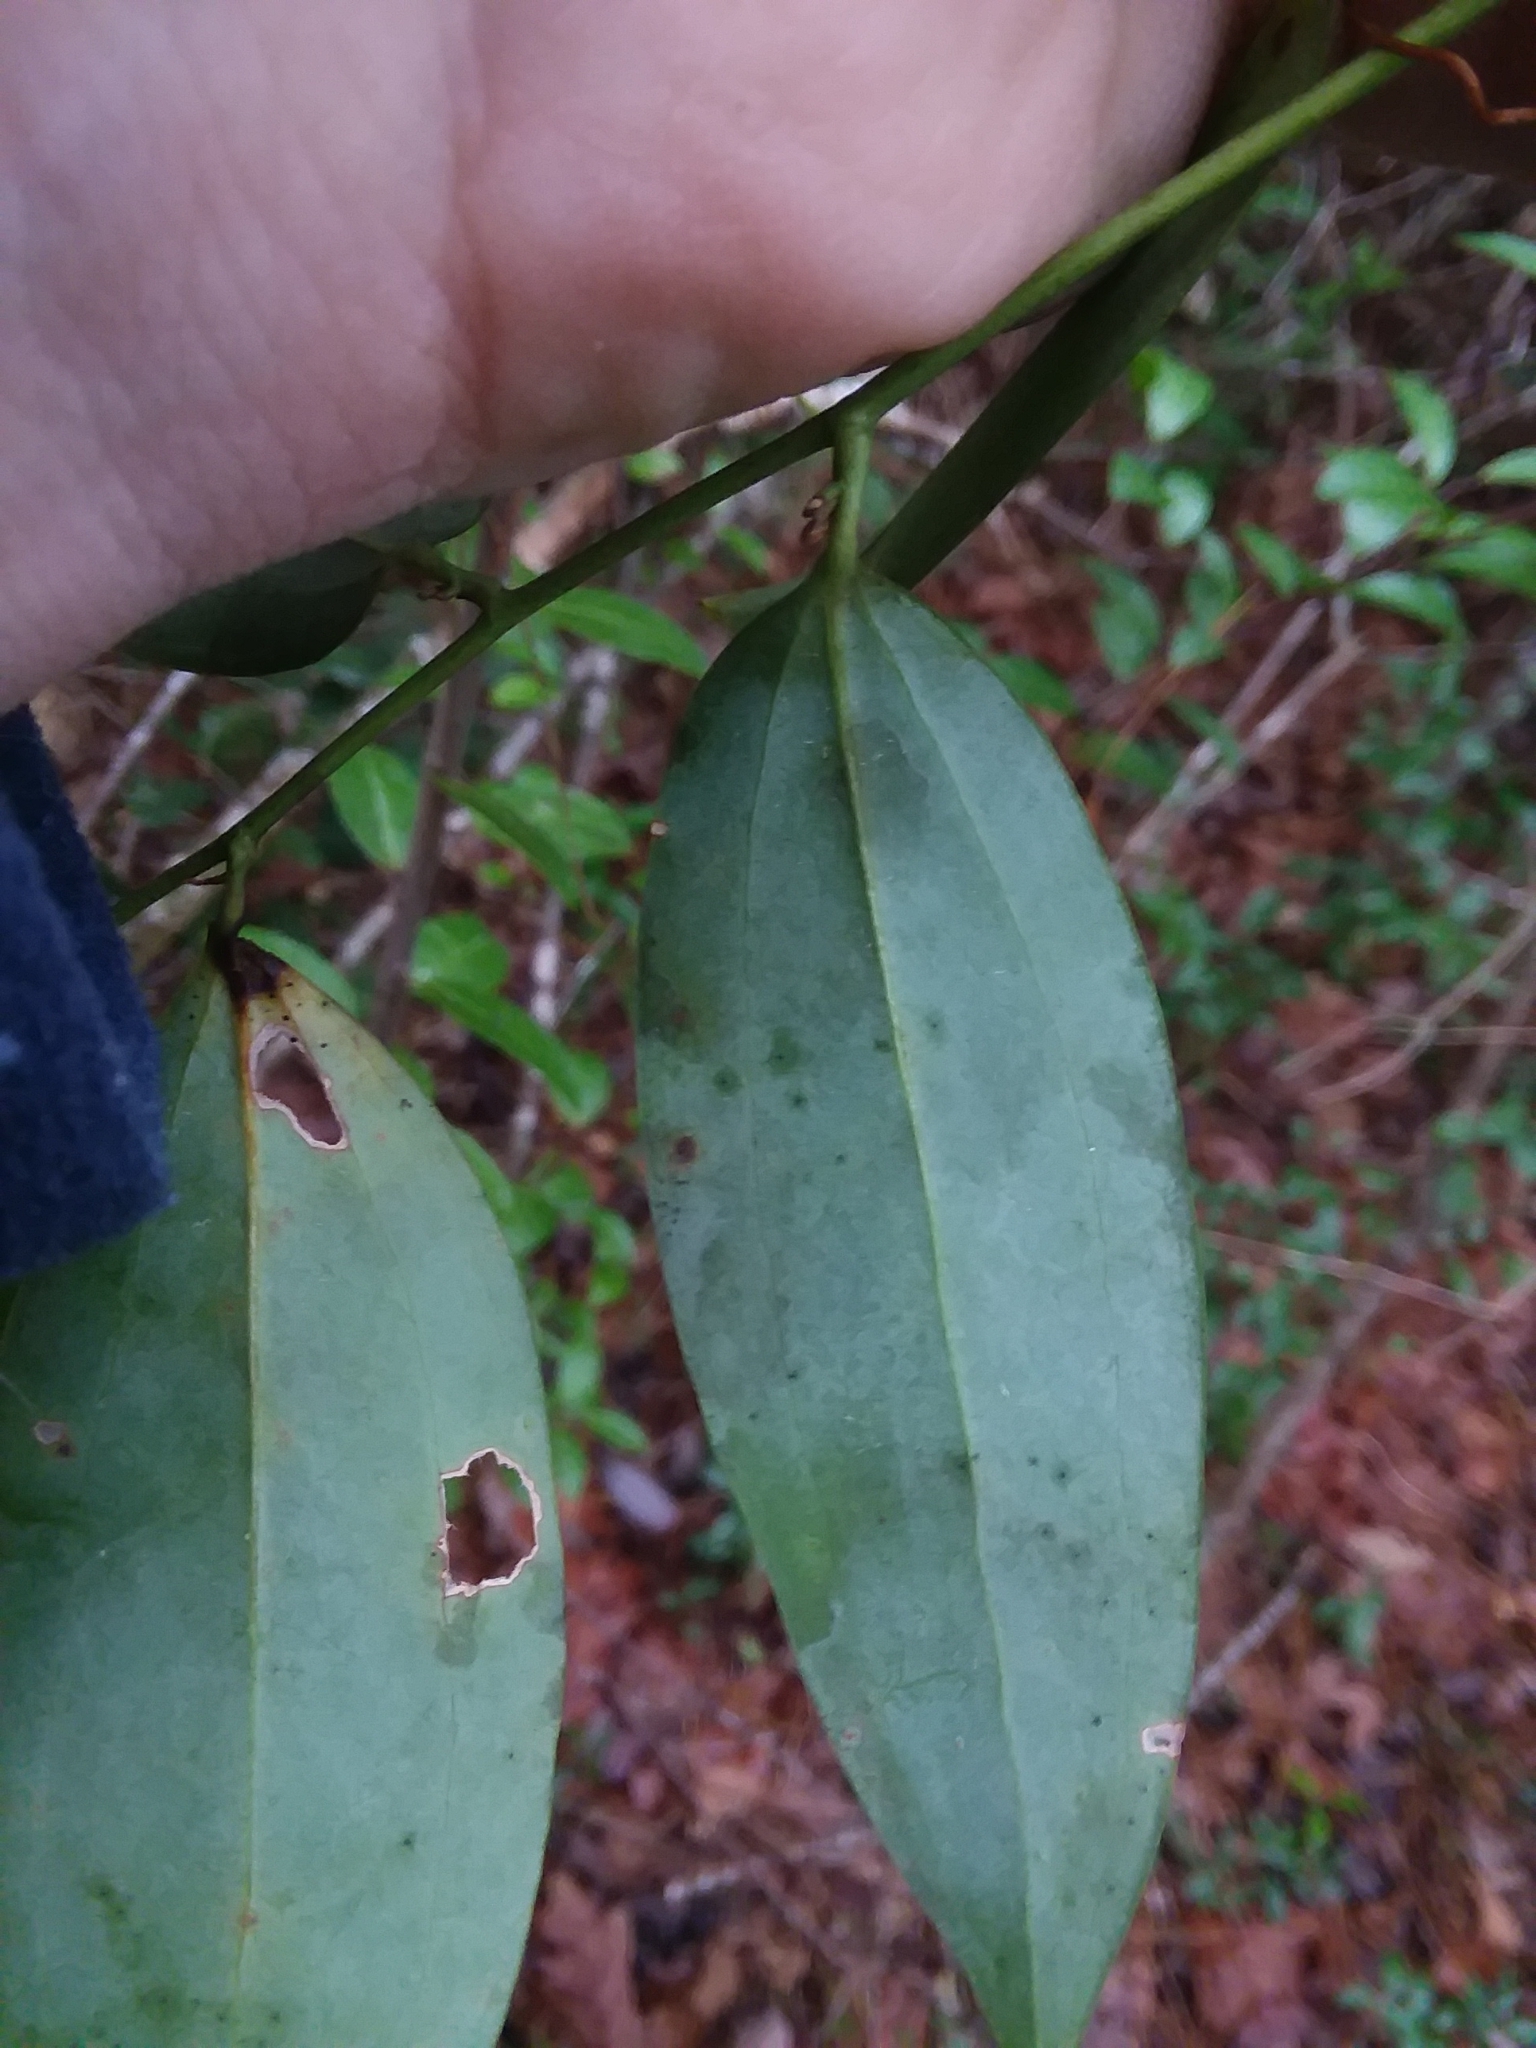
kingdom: Plantae
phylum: Tracheophyta
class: Liliopsida
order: Liliales
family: Smilacaceae
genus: Smilax
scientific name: Smilax maritima
